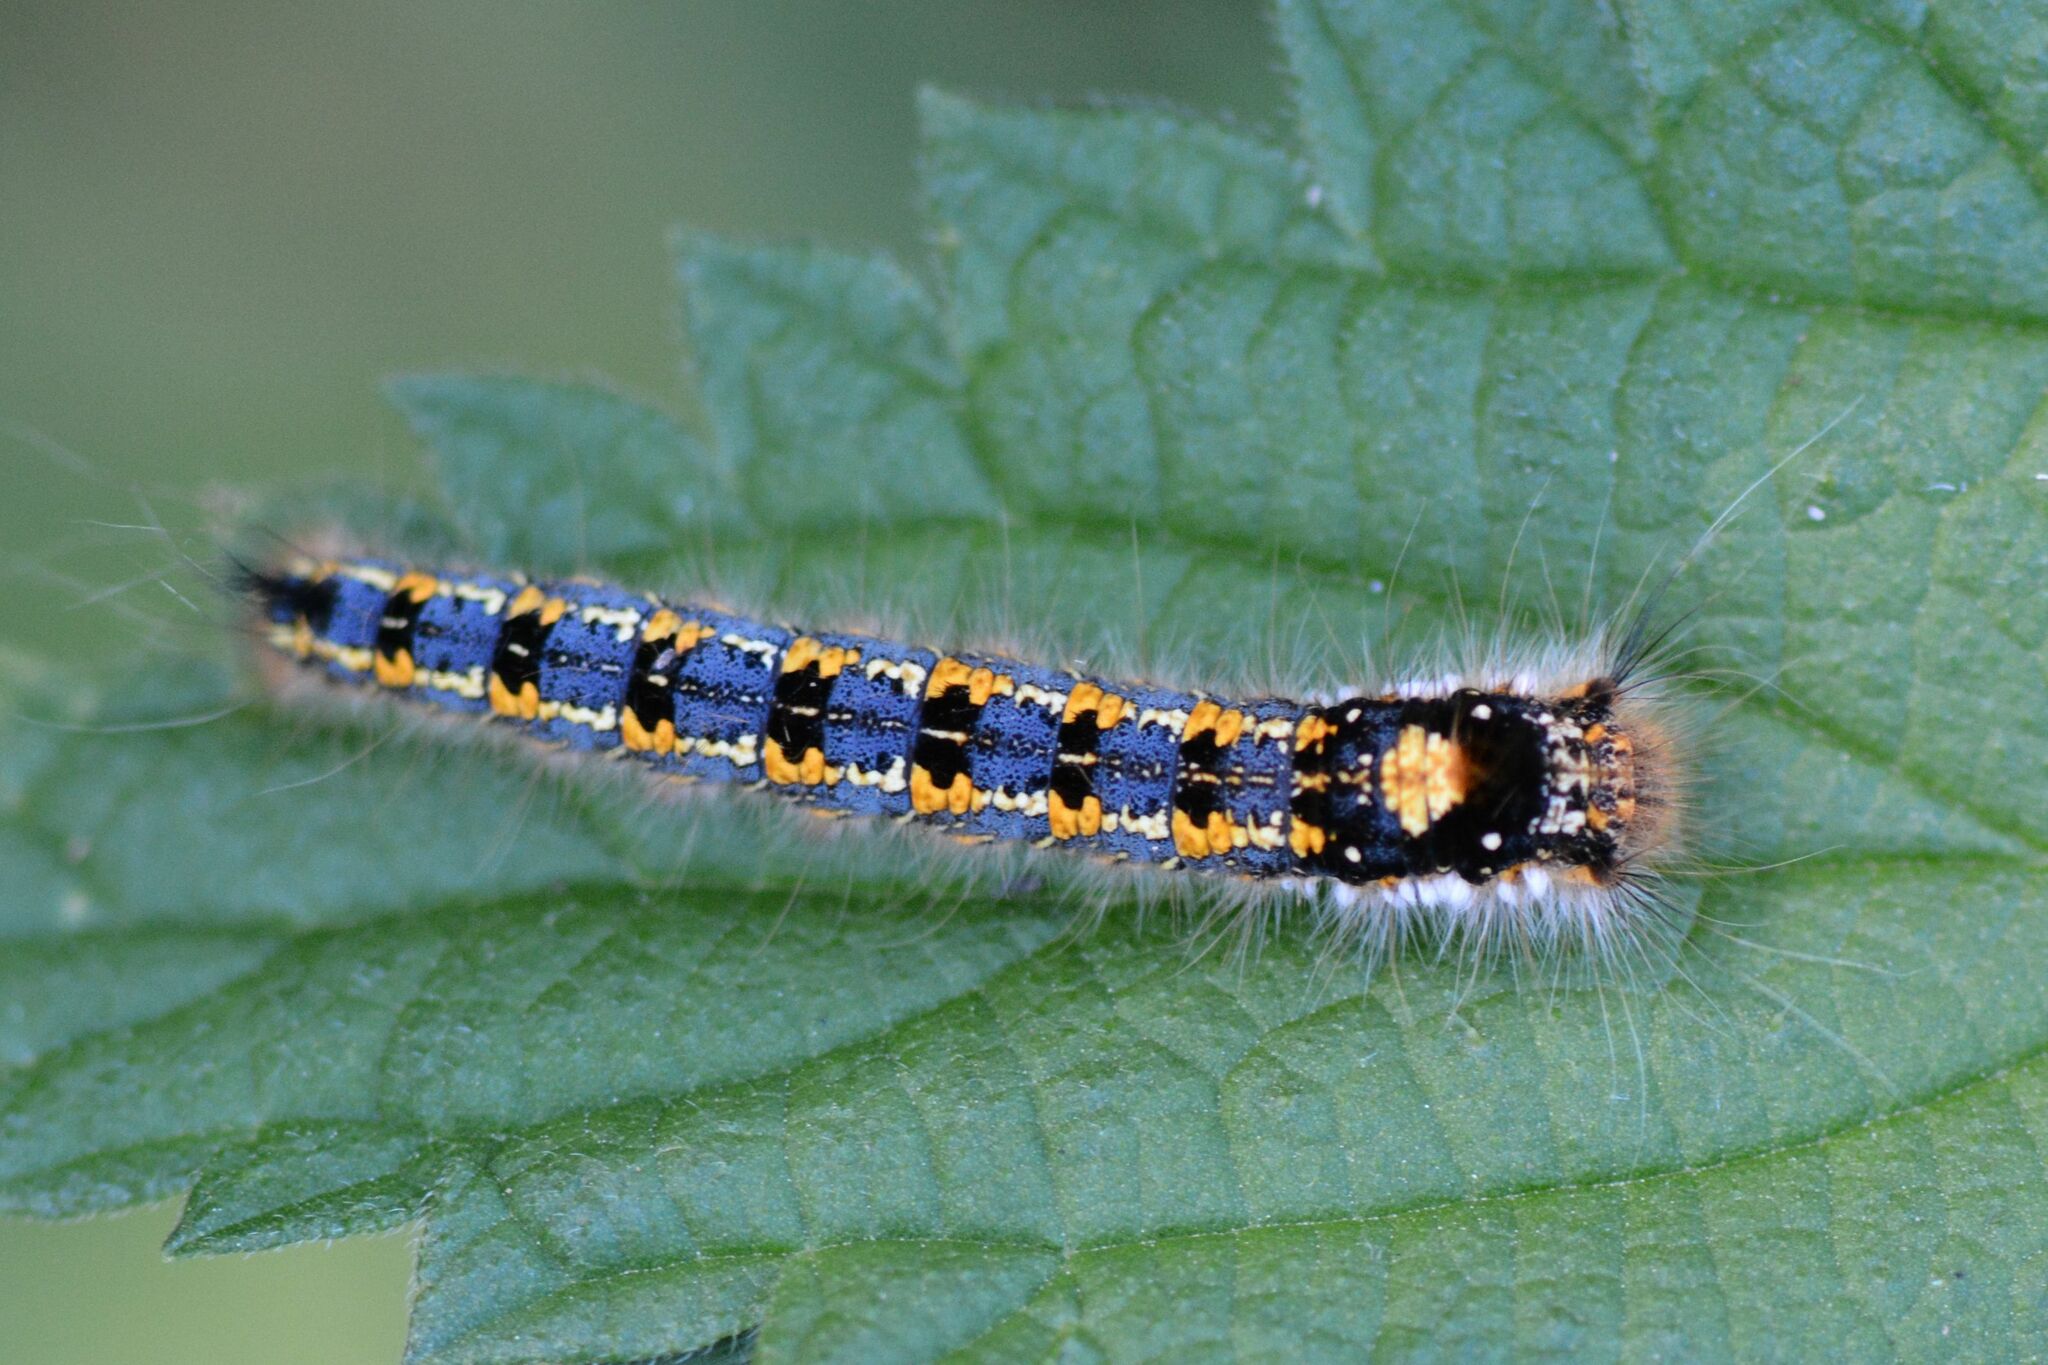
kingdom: Animalia
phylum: Arthropoda
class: Insecta
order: Lepidoptera
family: Lasiocampidae
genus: Euthrix
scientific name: Euthrix potatoria
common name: Drinker
